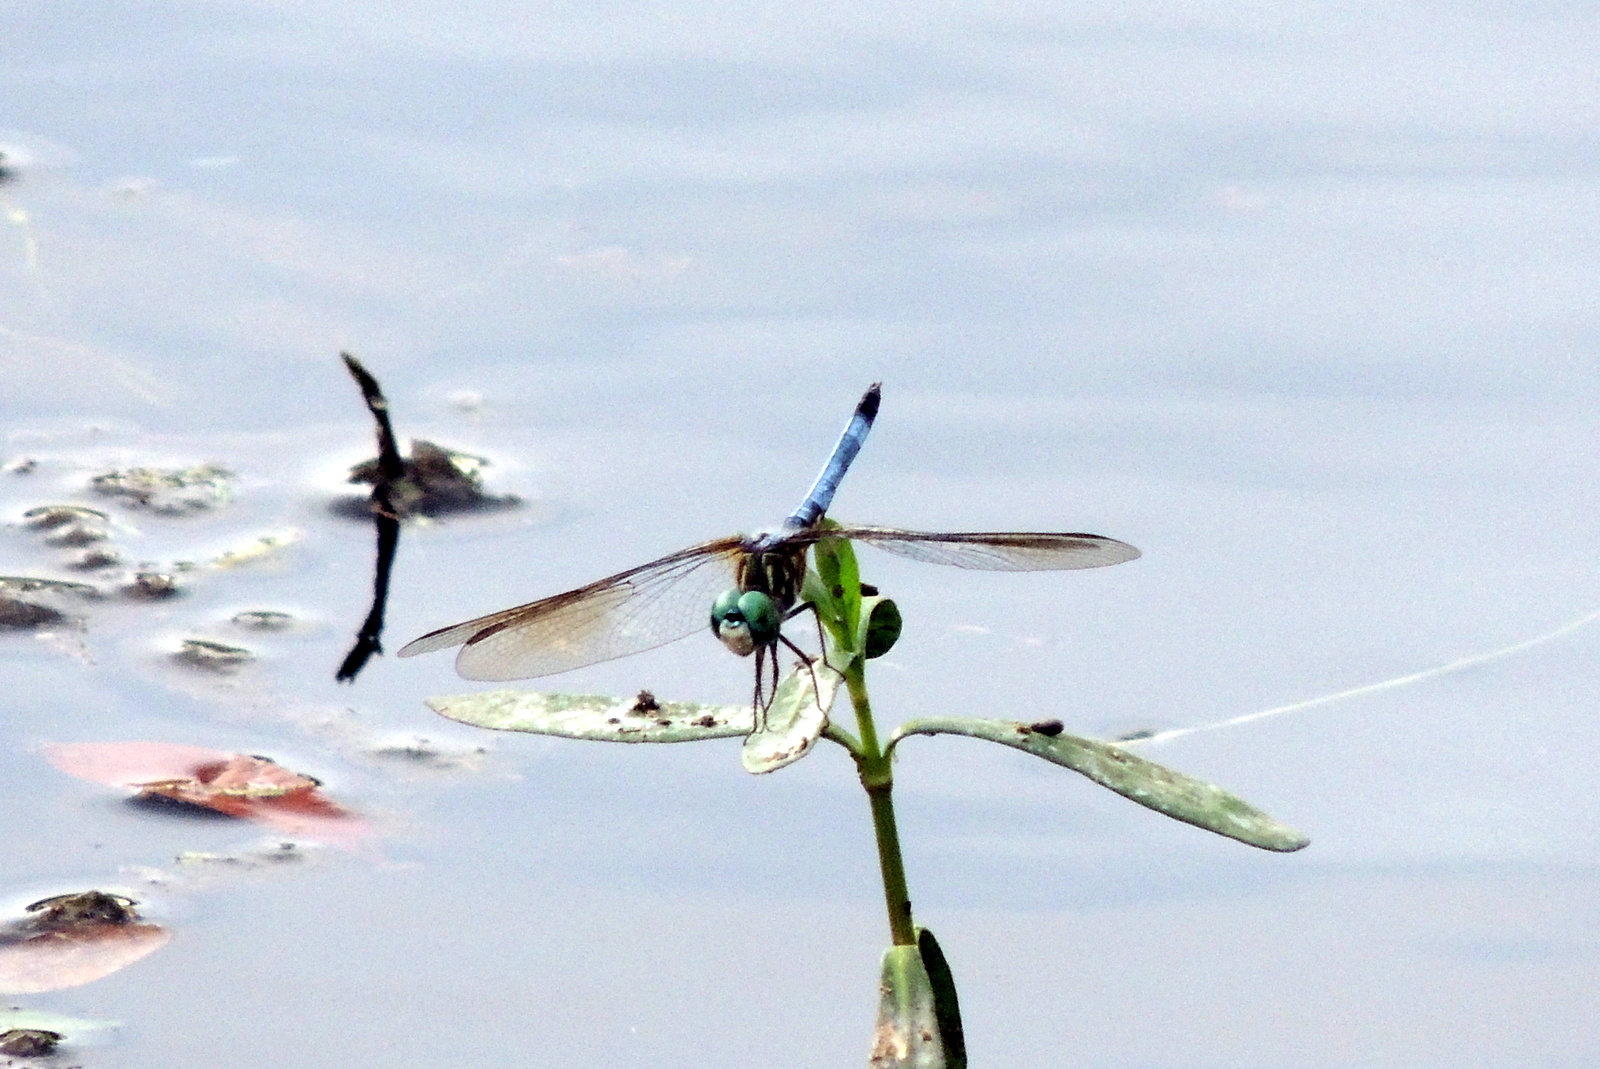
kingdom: Animalia
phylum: Arthropoda
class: Insecta
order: Odonata
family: Libellulidae
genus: Pachydiplax
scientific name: Pachydiplax longipennis
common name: Blue dasher
